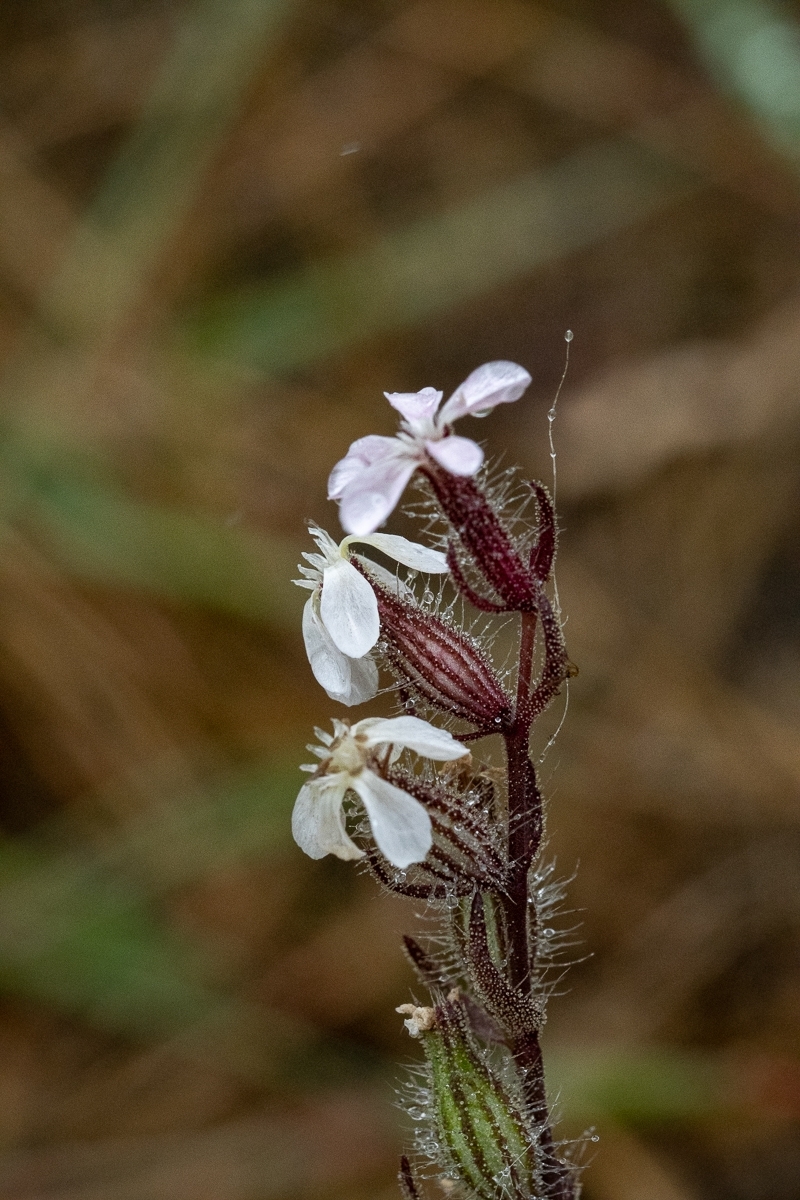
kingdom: Plantae
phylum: Tracheophyta
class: Magnoliopsida
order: Caryophyllales
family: Caryophyllaceae
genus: Silene
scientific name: Silene gallica
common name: Small-flowered catchfly
